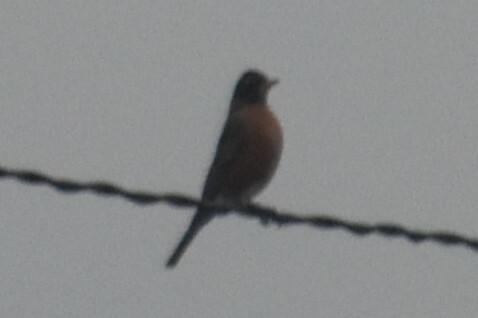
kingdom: Animalia
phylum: Chordata
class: Aves
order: Passeriformes
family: Turdidae
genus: Turdus
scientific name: Turdus migratorius
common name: American robin
